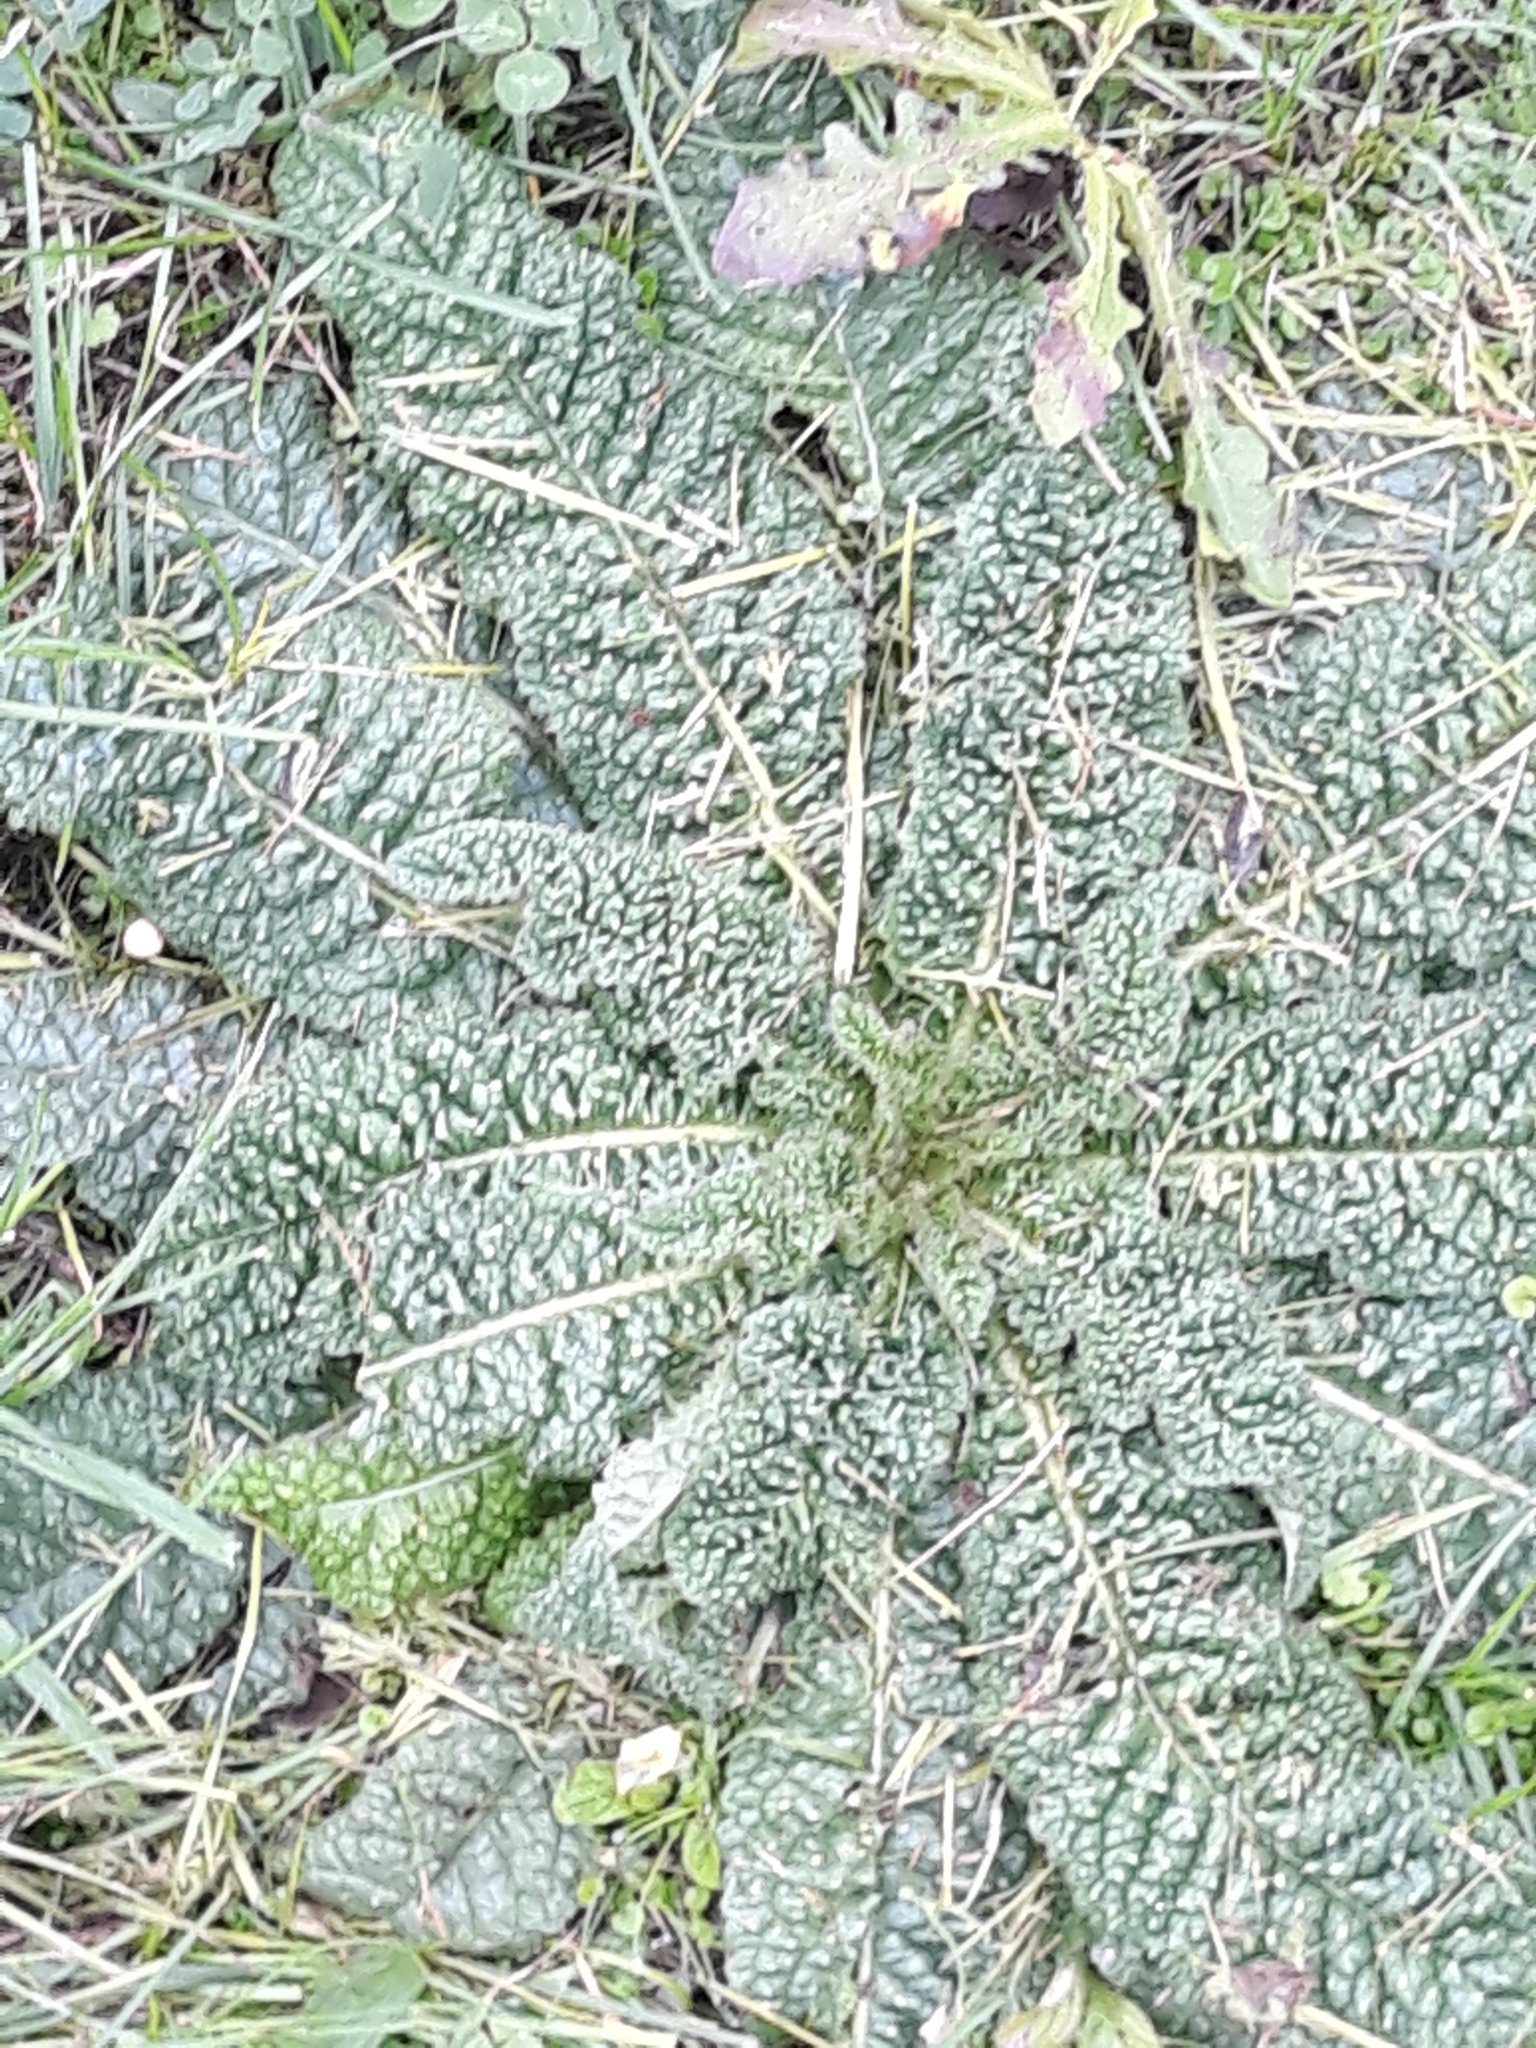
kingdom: Plantae
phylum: Tracheophyta
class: Magnoliopsida
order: Dipsacales
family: Caprifoliaceae
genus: Dipsacus
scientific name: Dipsacus fullonum
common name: Teasel
